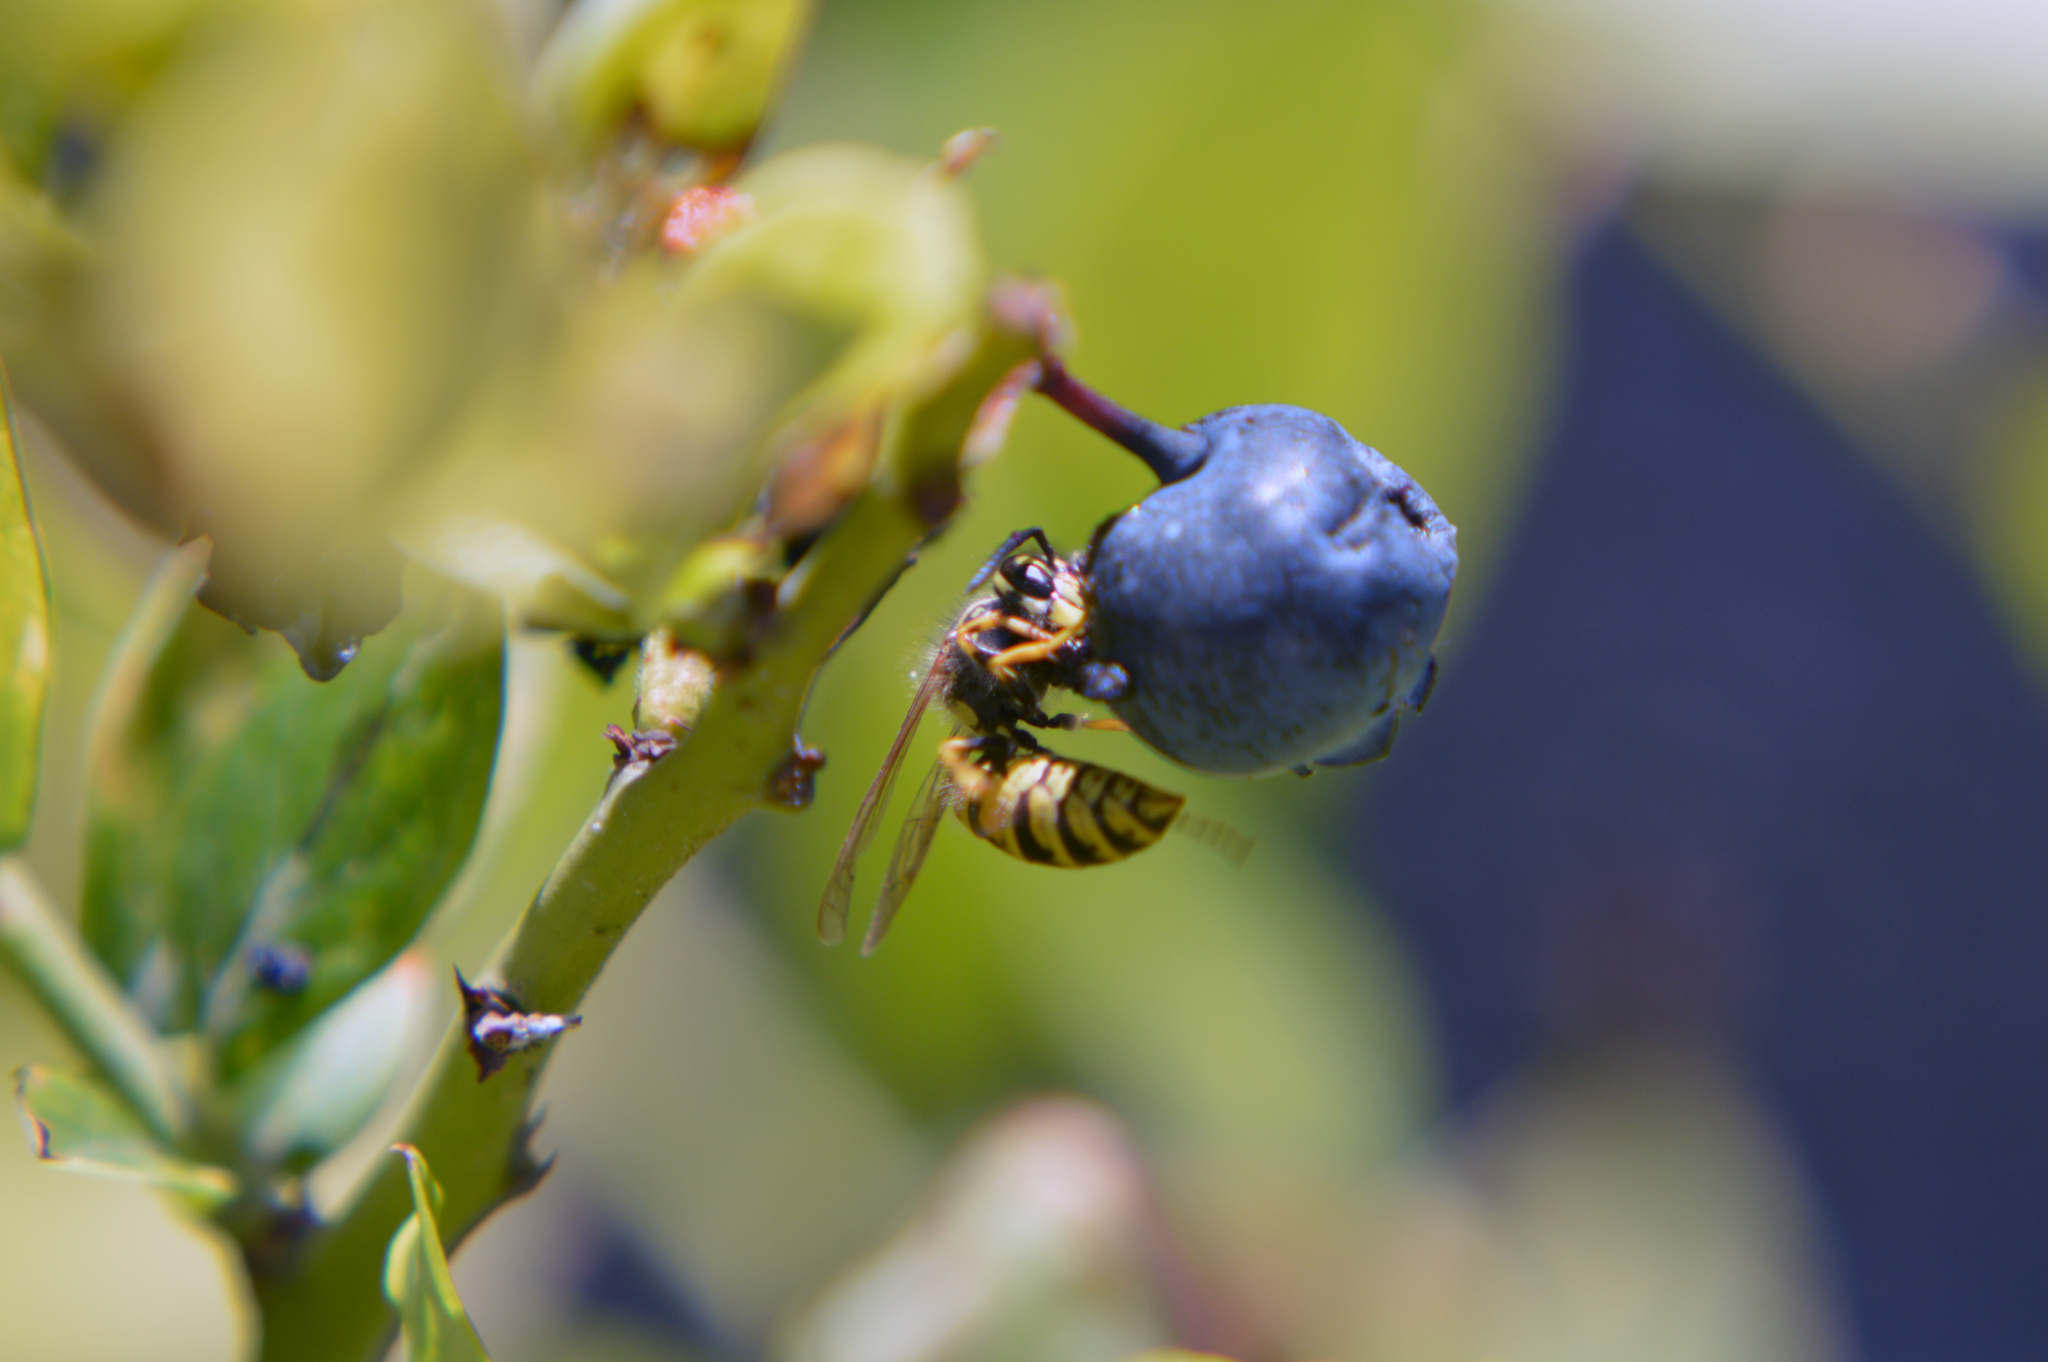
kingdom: Animalia
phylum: Arthropoda
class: Insecta
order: Hymenoptera
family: Vespidae
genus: Vespula
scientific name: Vespula vulgaris
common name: Common wasp
